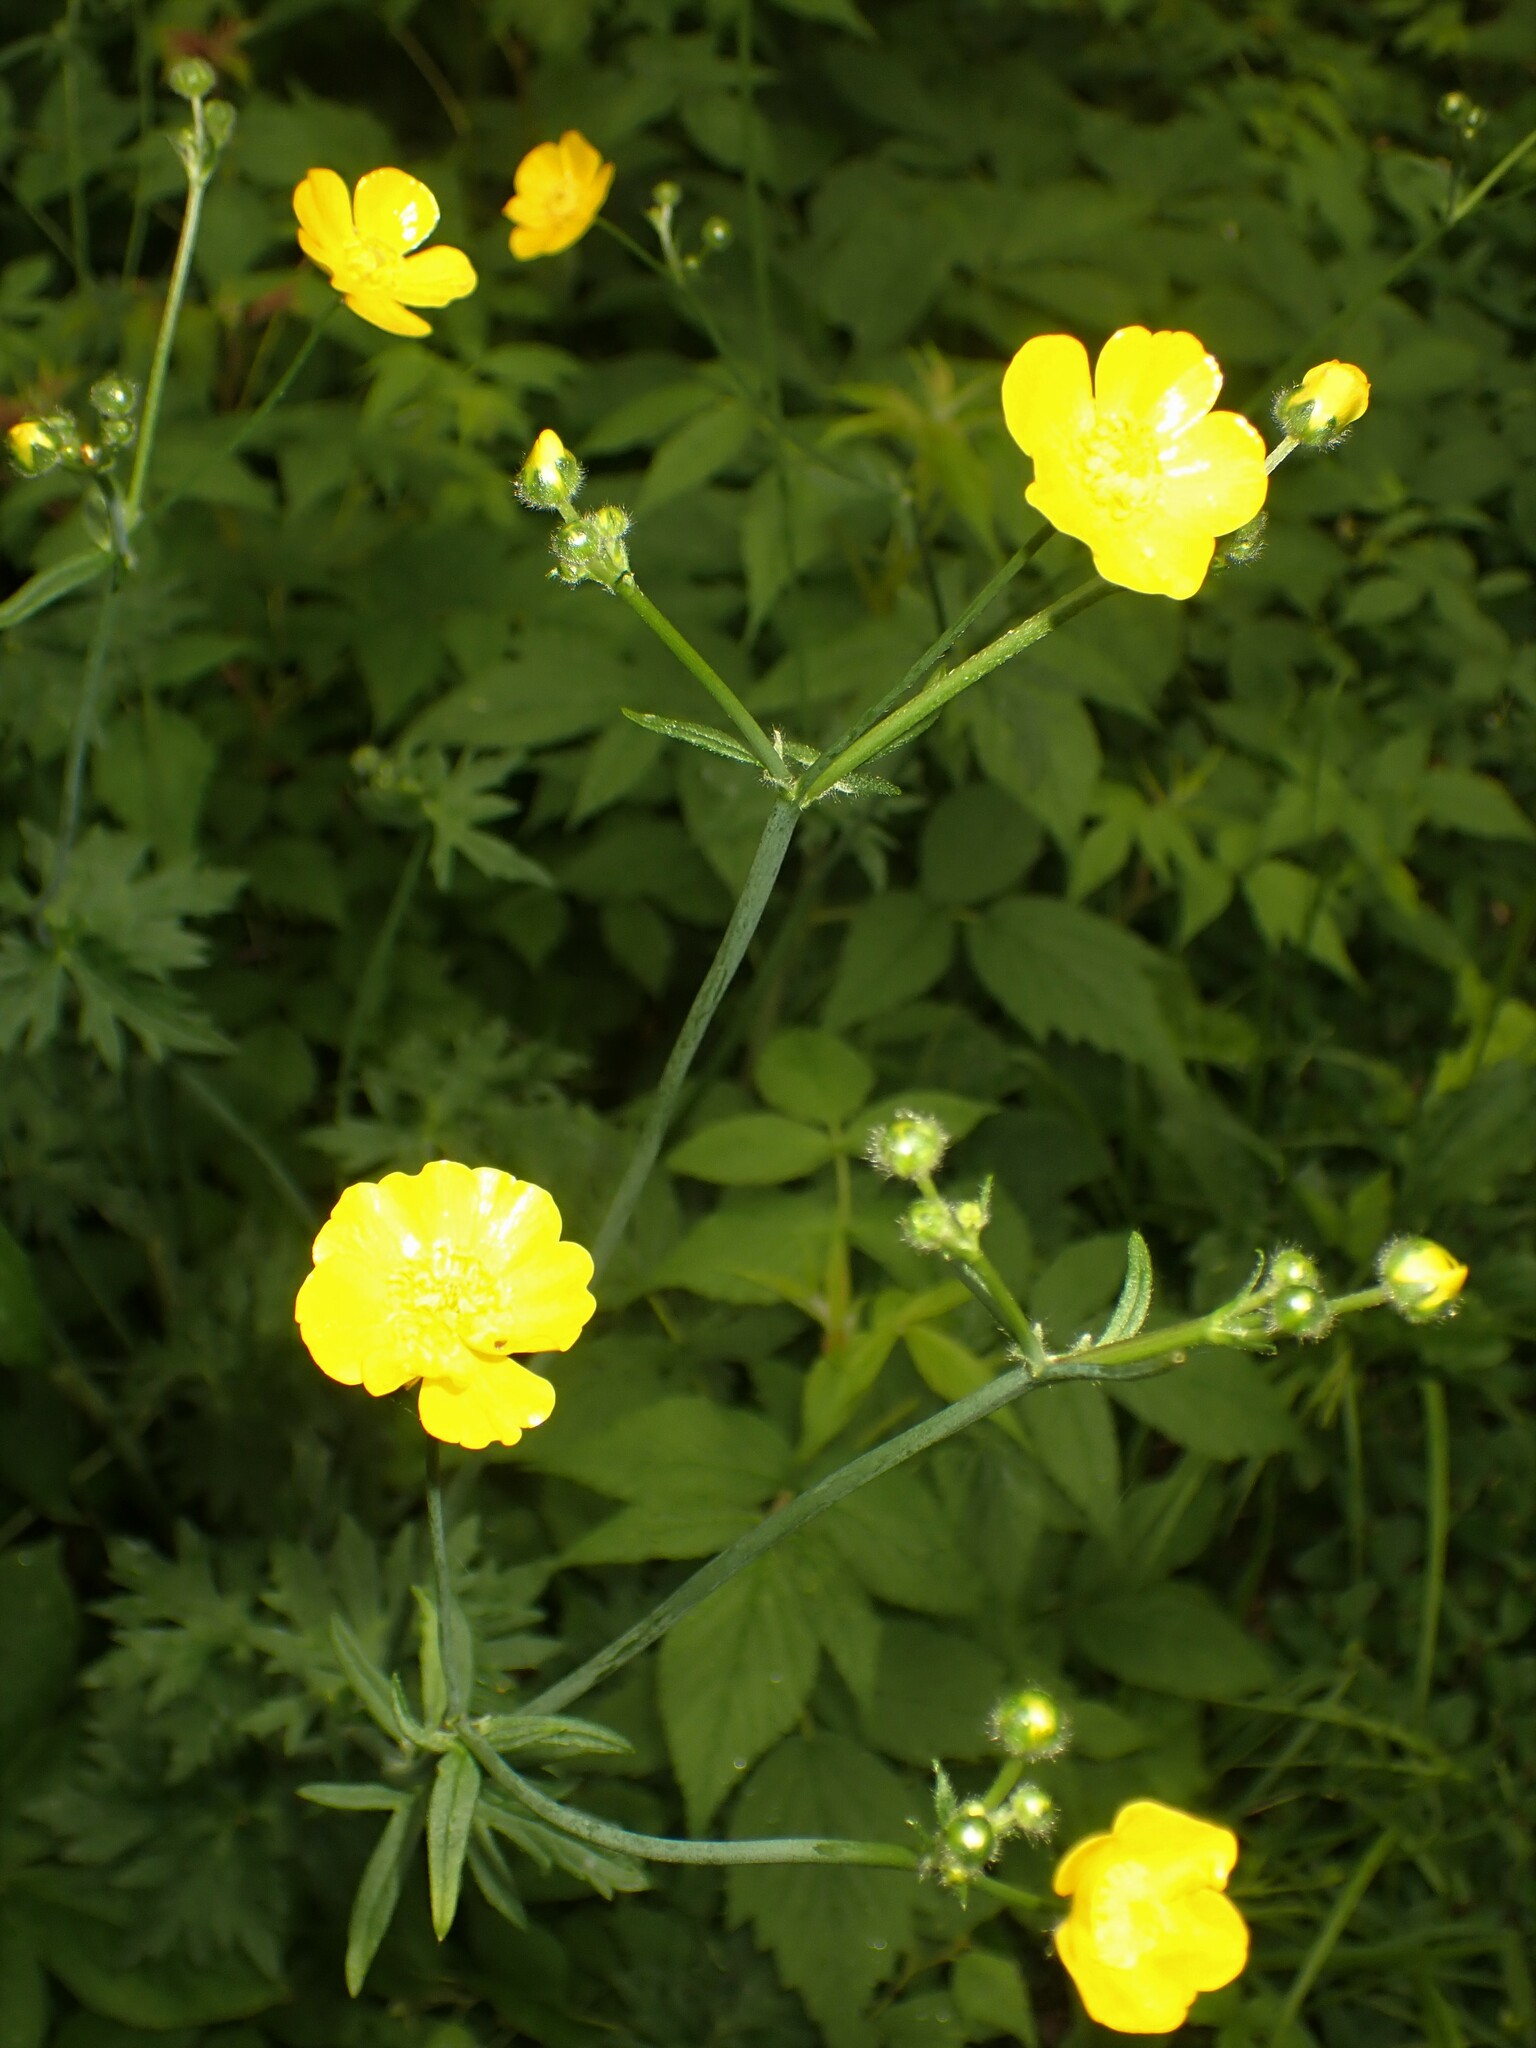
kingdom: Plantae
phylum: Tracheophyta
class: Magnoliopsida
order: Ranunculales
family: Ranunculaceae
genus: Ranunculus
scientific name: Ranunculus acris
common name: Meadow buttercup
